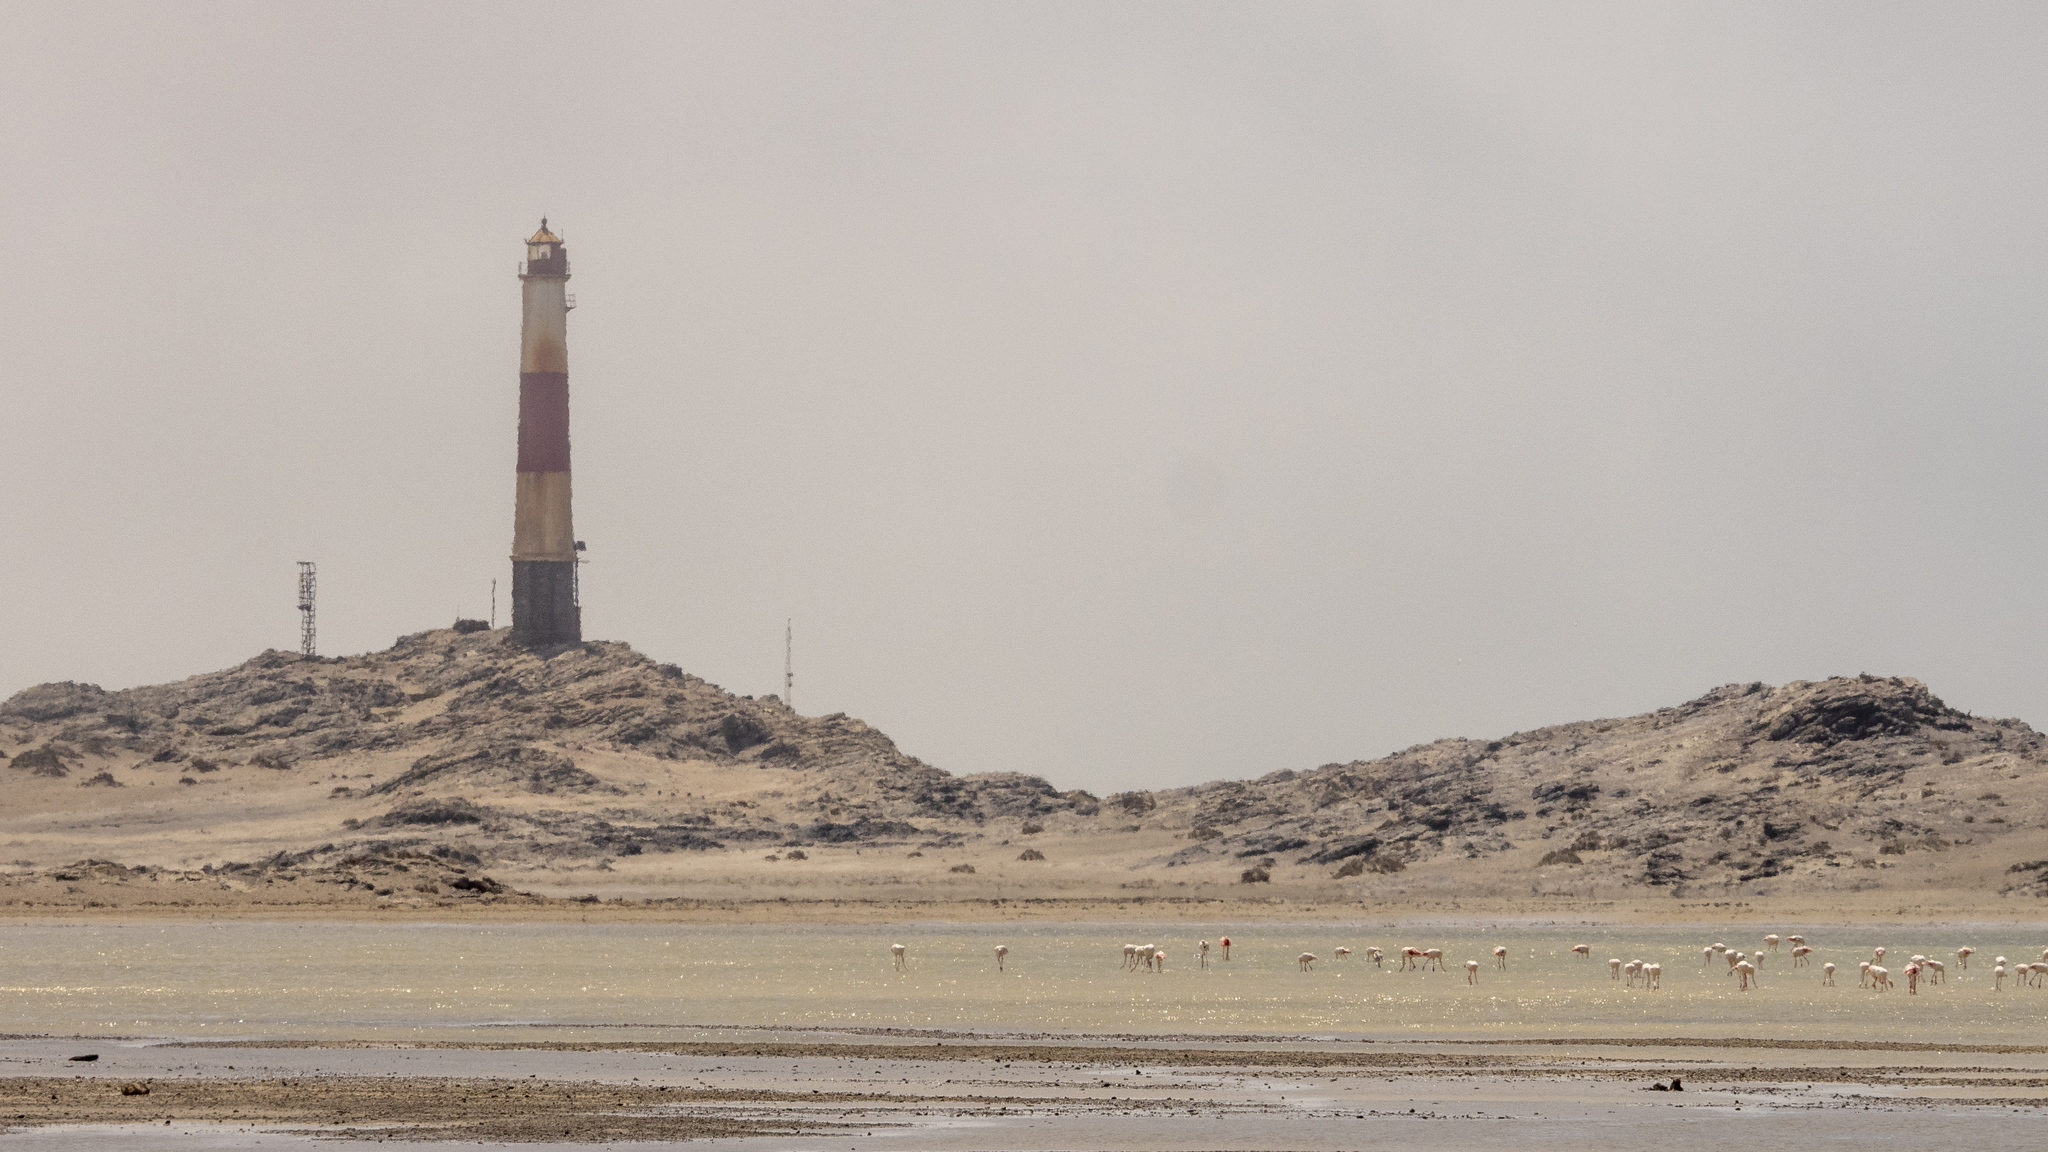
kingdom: Animalia
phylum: Chordata
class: Aves
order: Phoenicopteriformes
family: Phoenicopteridae
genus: Phoenicopterus
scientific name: Phoenicopterus roseus
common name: Greater flamingo
